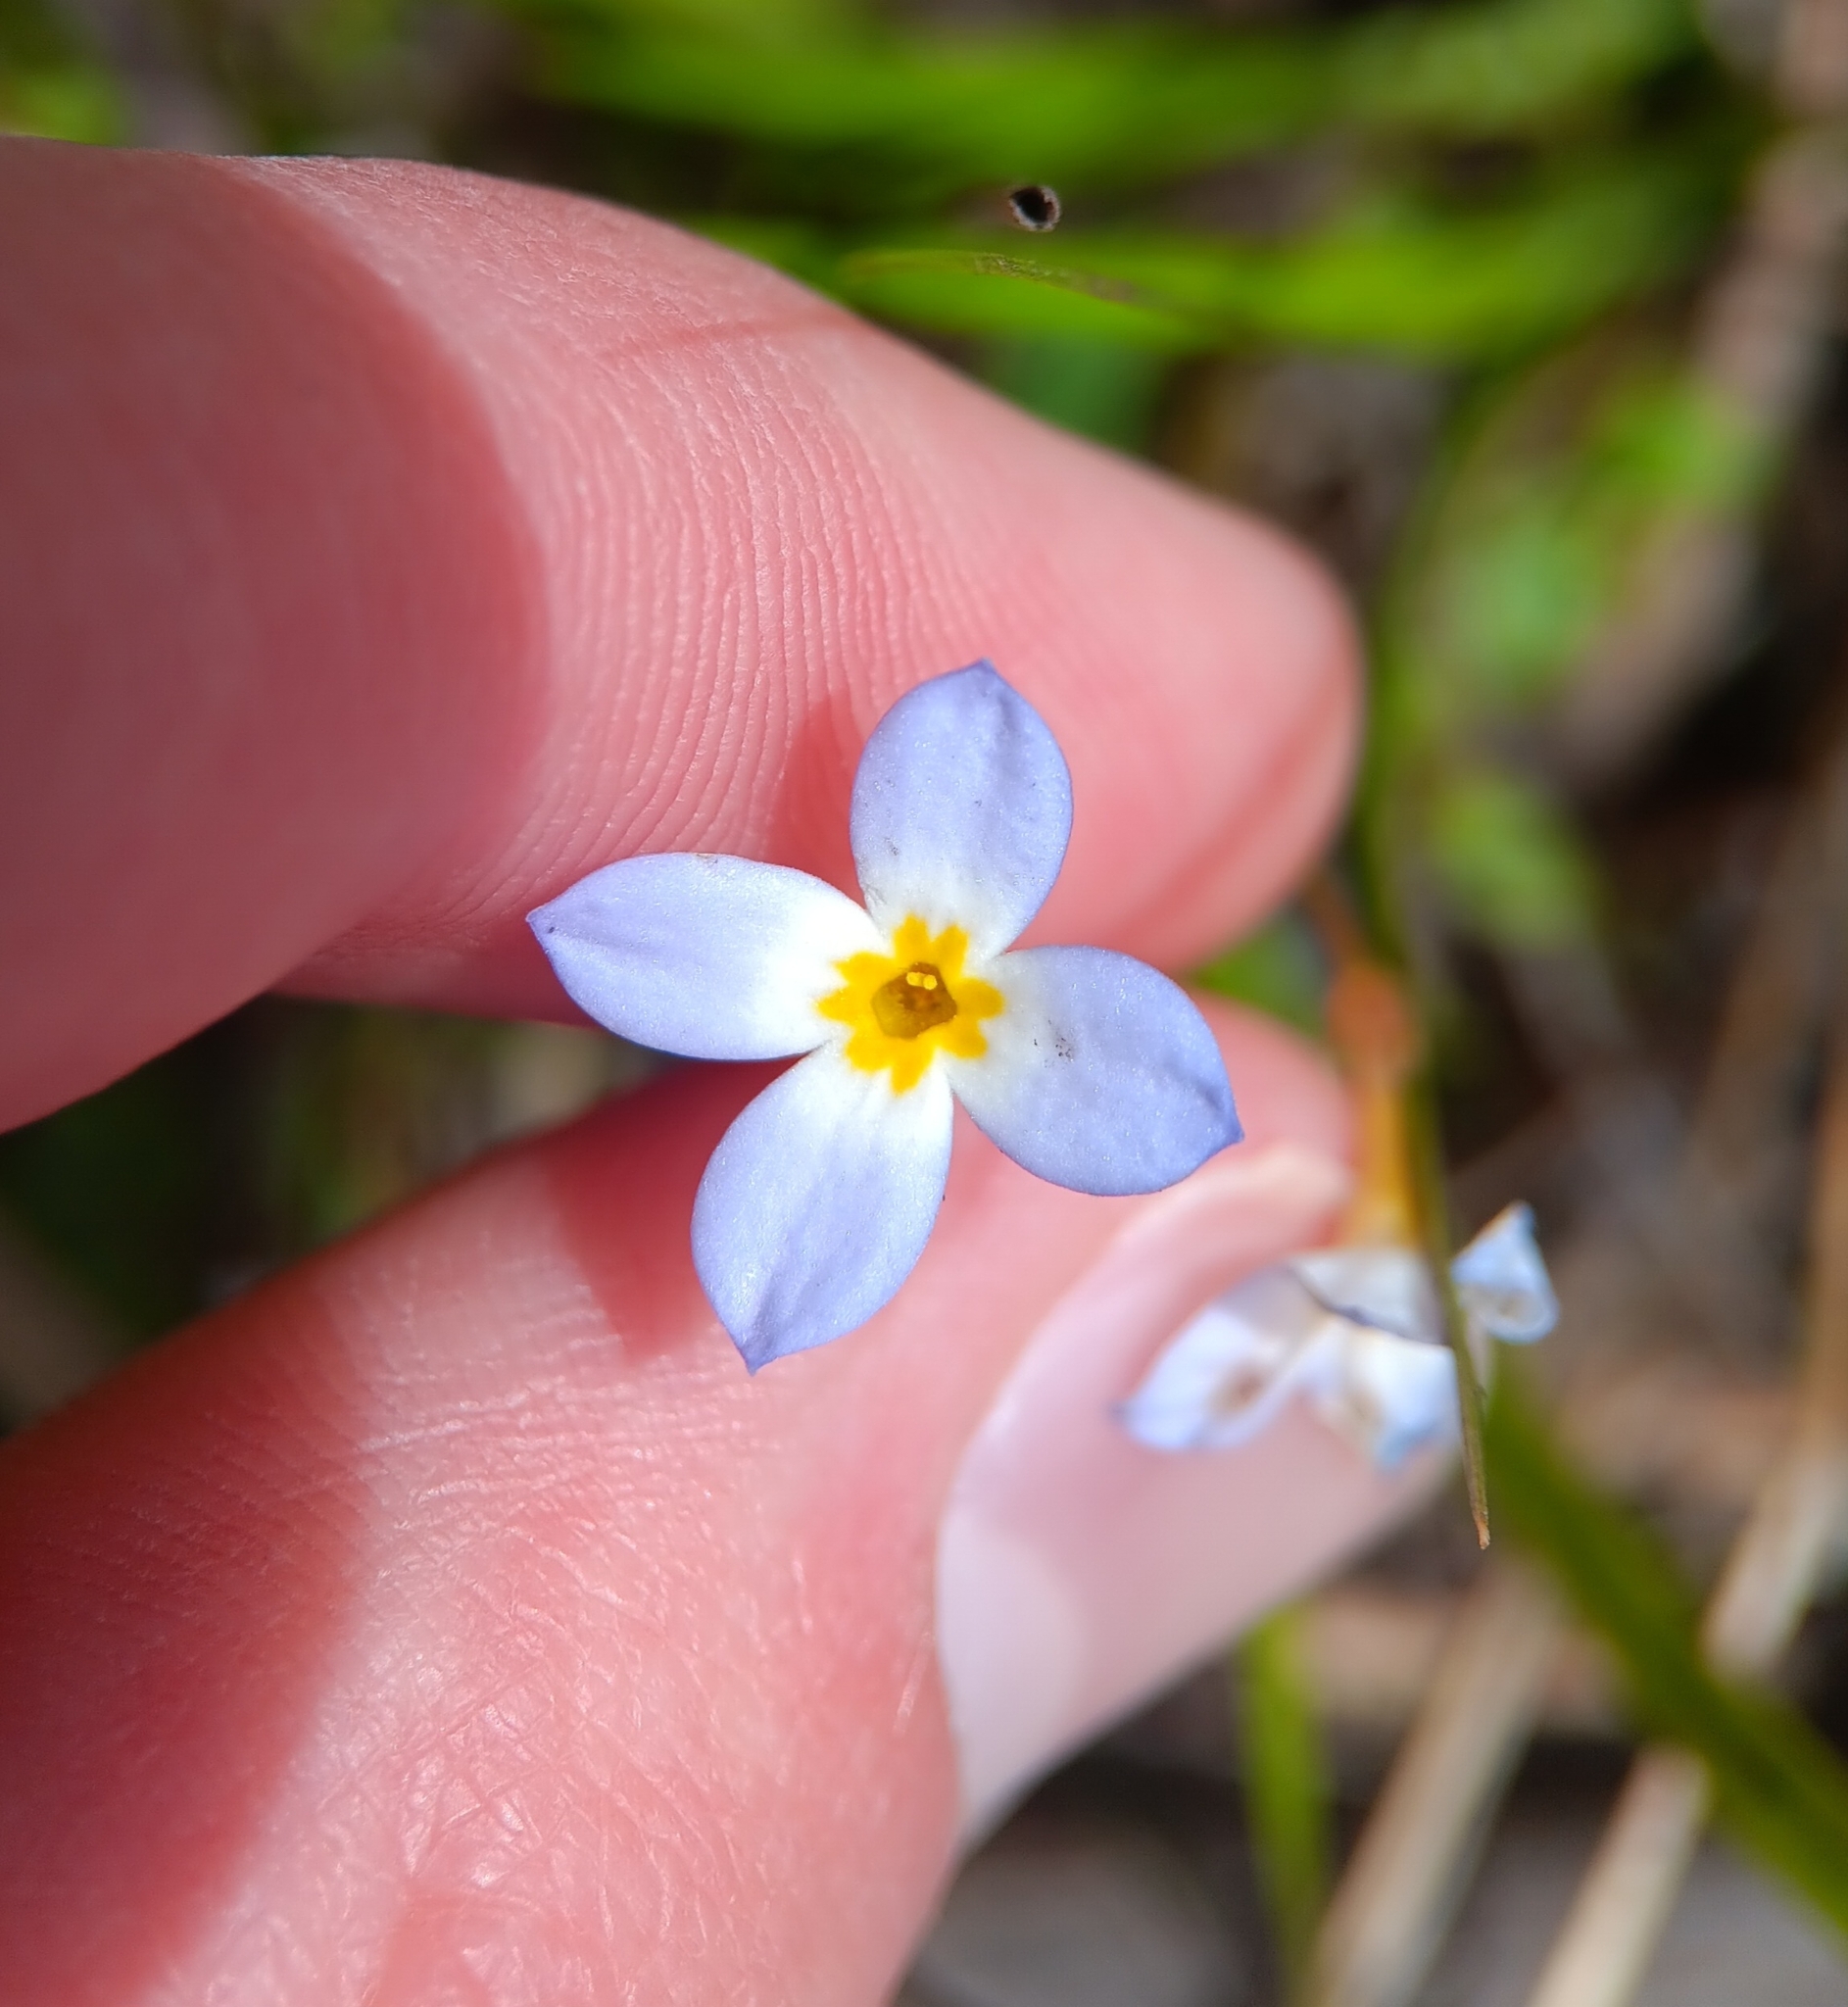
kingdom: Plantae
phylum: Tracheophyta
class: Magnoliopsida
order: Gentianales
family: Rubiaceae
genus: Houstonia
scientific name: Houstonia caerulea
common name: Bluets
